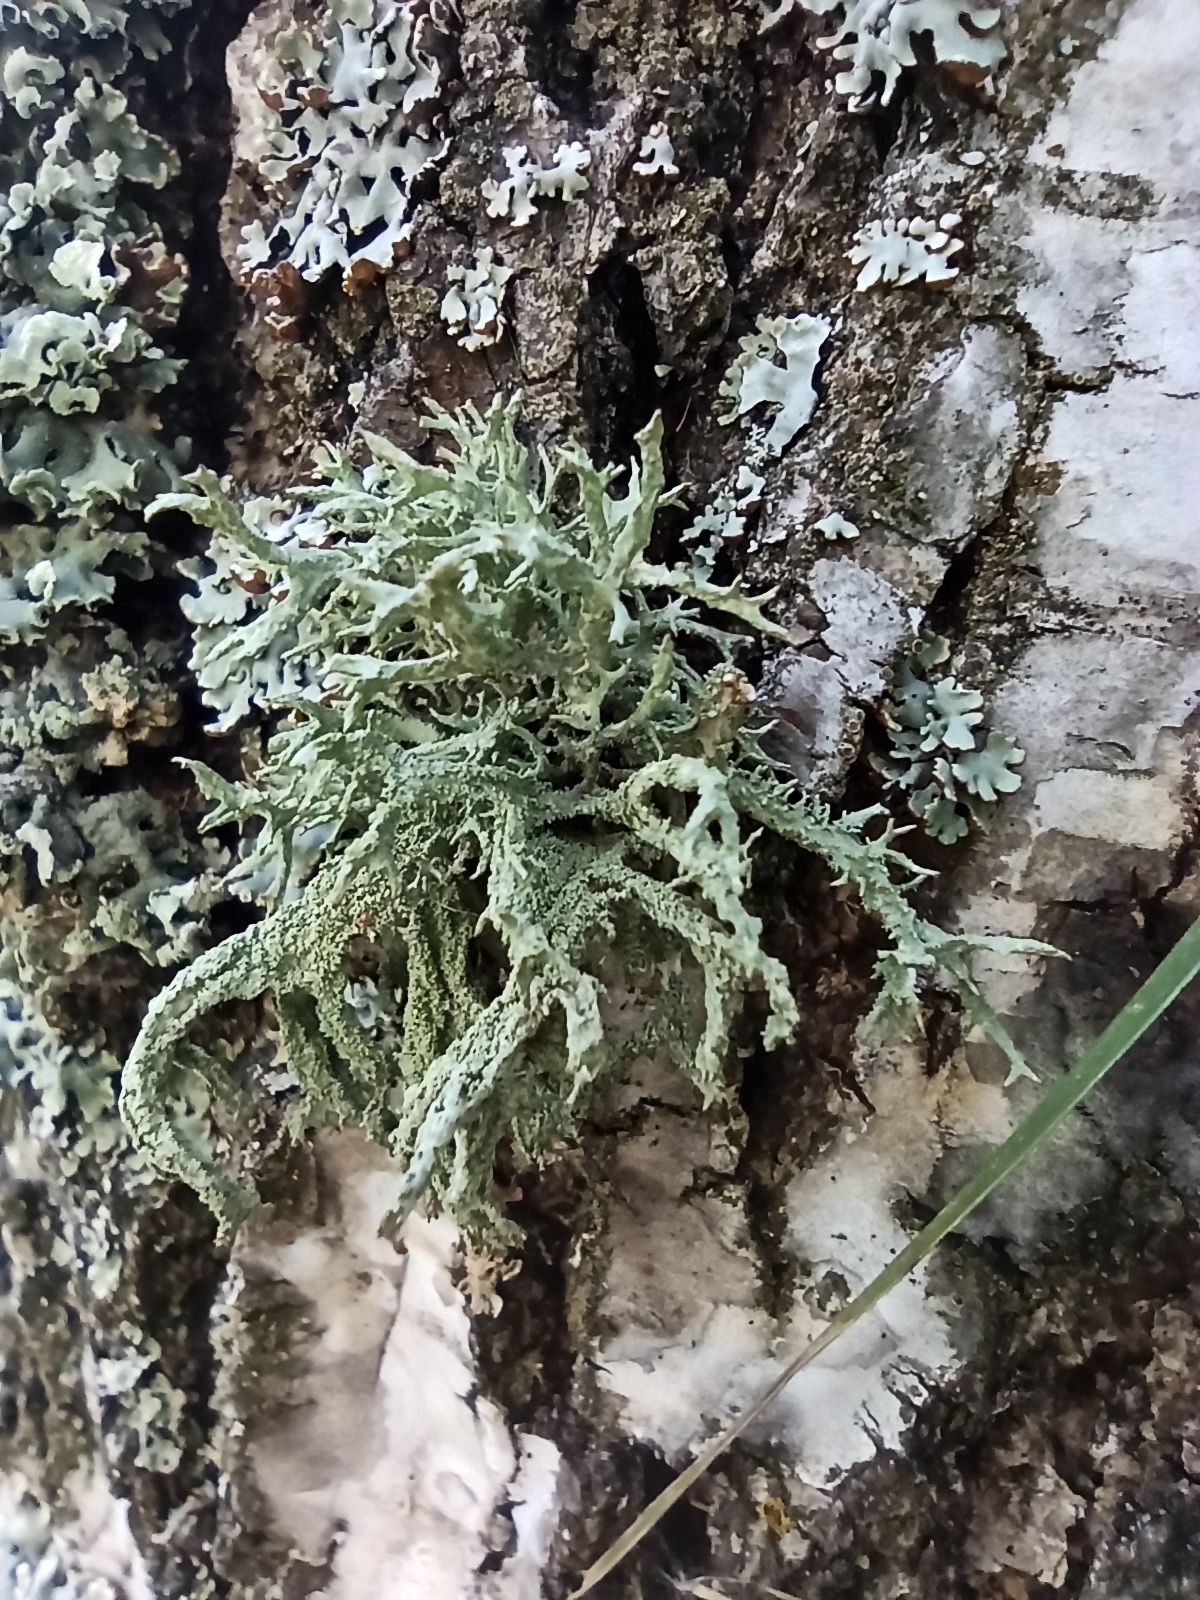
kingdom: Fungi
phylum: Ascomycota
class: Lecanoromycetes
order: Lecanorales
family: Parmeliaceae
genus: Evernia
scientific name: Evernia mesomorpha
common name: Boreal oak moss lichen
